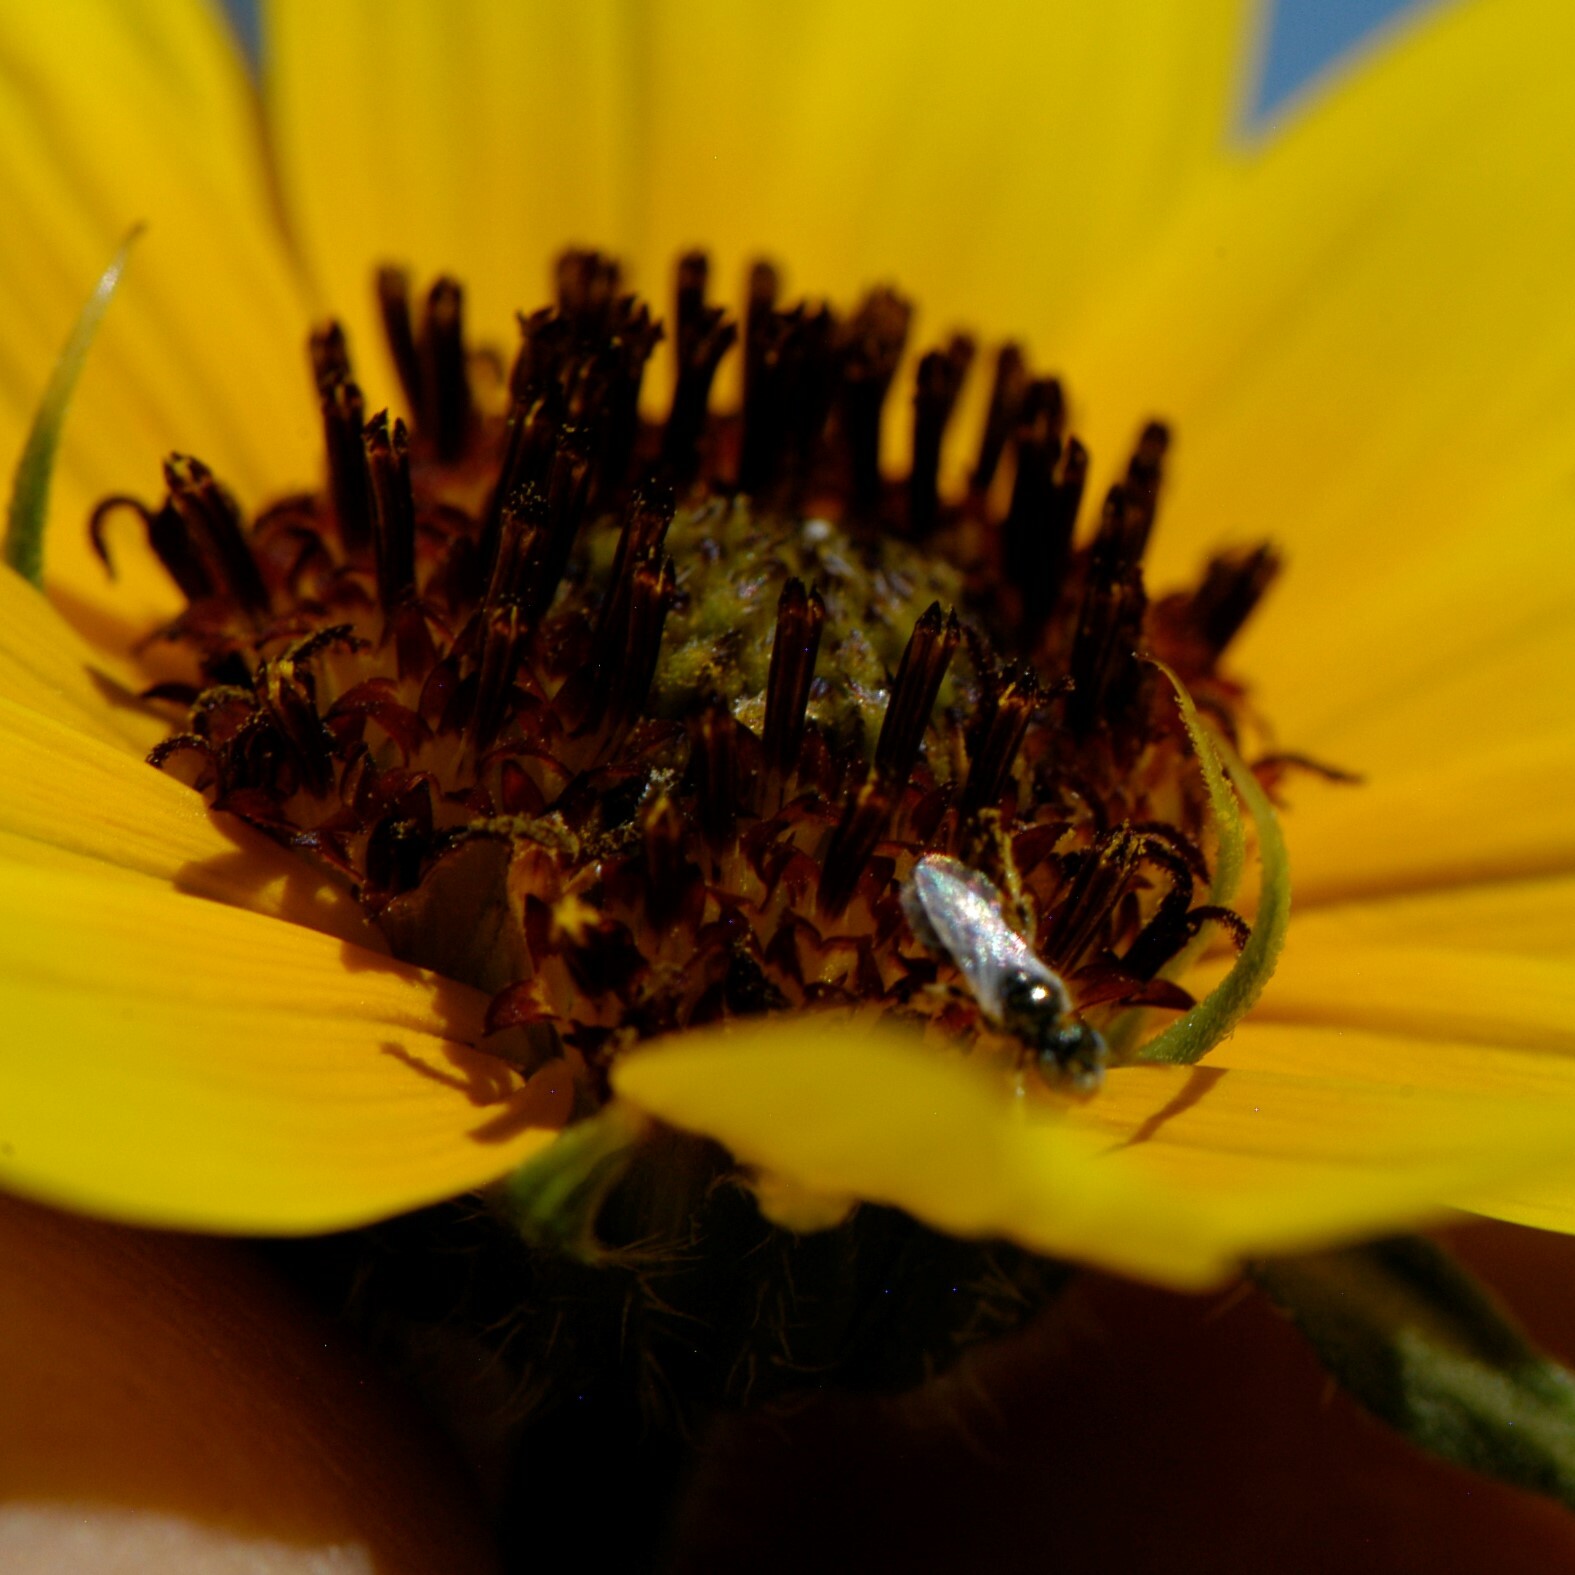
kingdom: Animalia
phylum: Arthropoda
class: Insecta
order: Hymenoptera
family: Andrenidae
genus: Perdita
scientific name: Perdita
